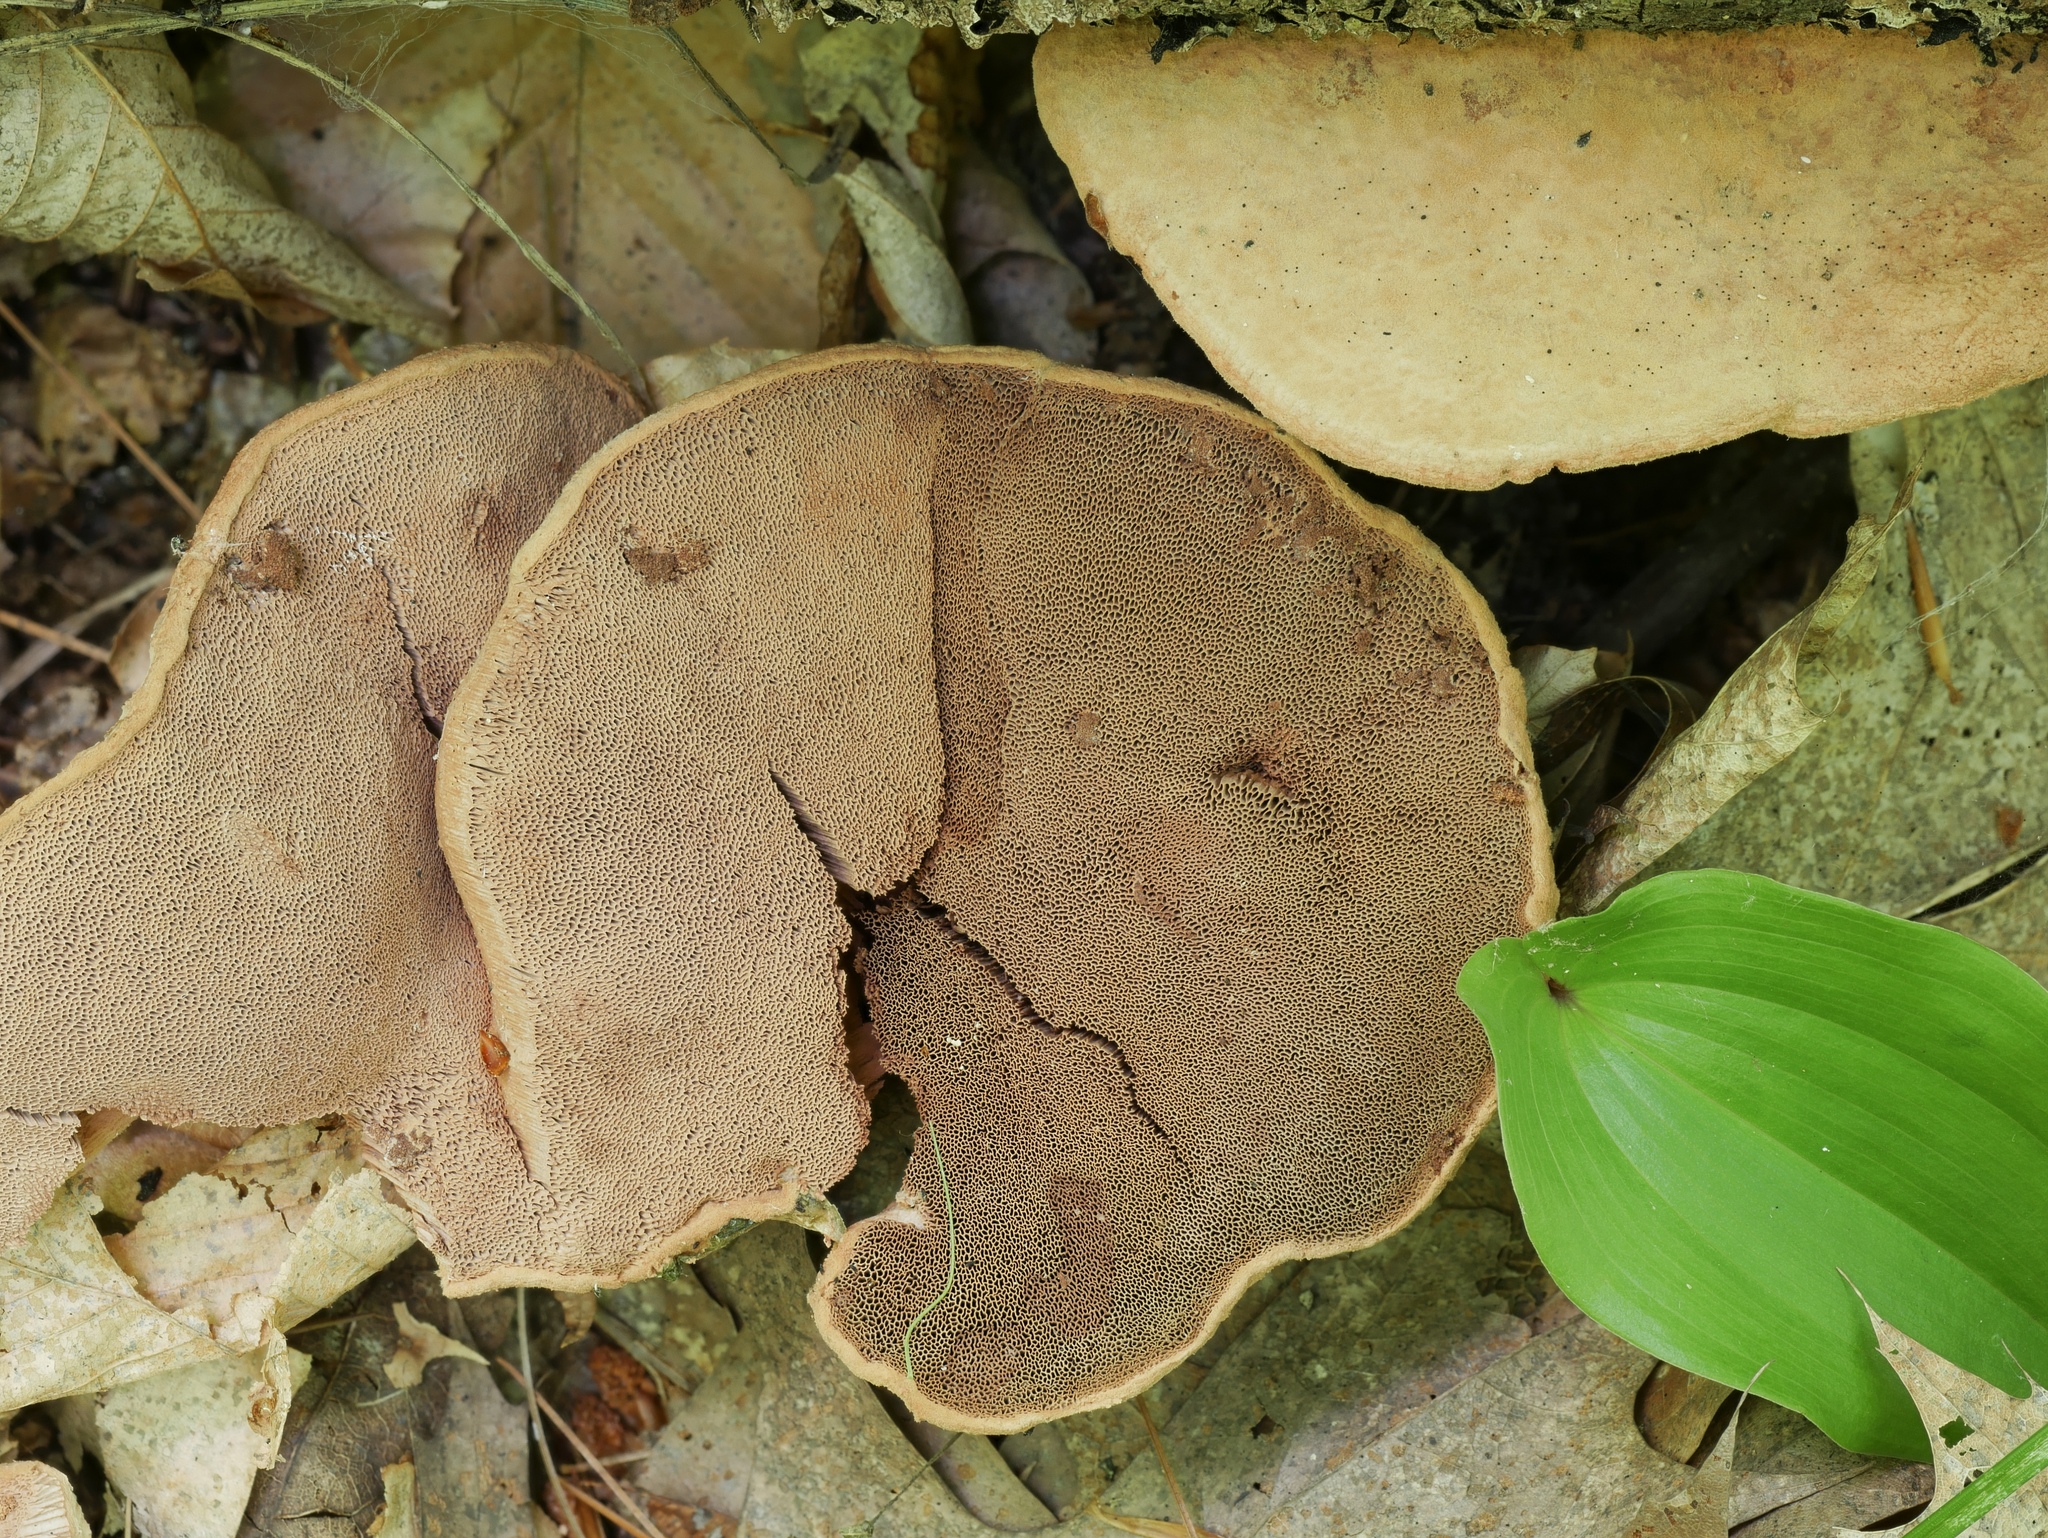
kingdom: Fungi
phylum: Basidiomycota
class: Agaricomycetes
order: Polyporales
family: Phanerochaetaceae
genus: Hapalopilus
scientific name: Hapalopilus rutilans
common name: Tender nesting polypore
